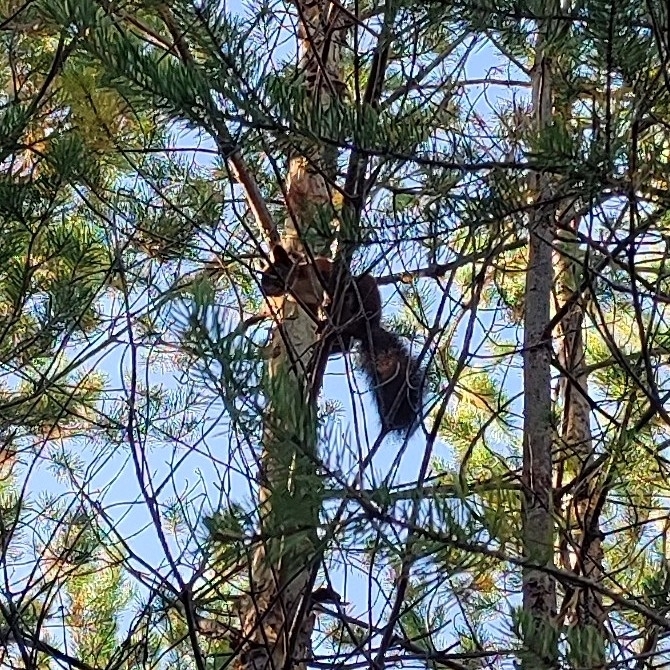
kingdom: Animalia
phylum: Chordata
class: Mammalia
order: Rodentia
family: Sciuridae
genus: Sciurus
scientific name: Sciurus vulgaris
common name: Eurasian red squirrel
